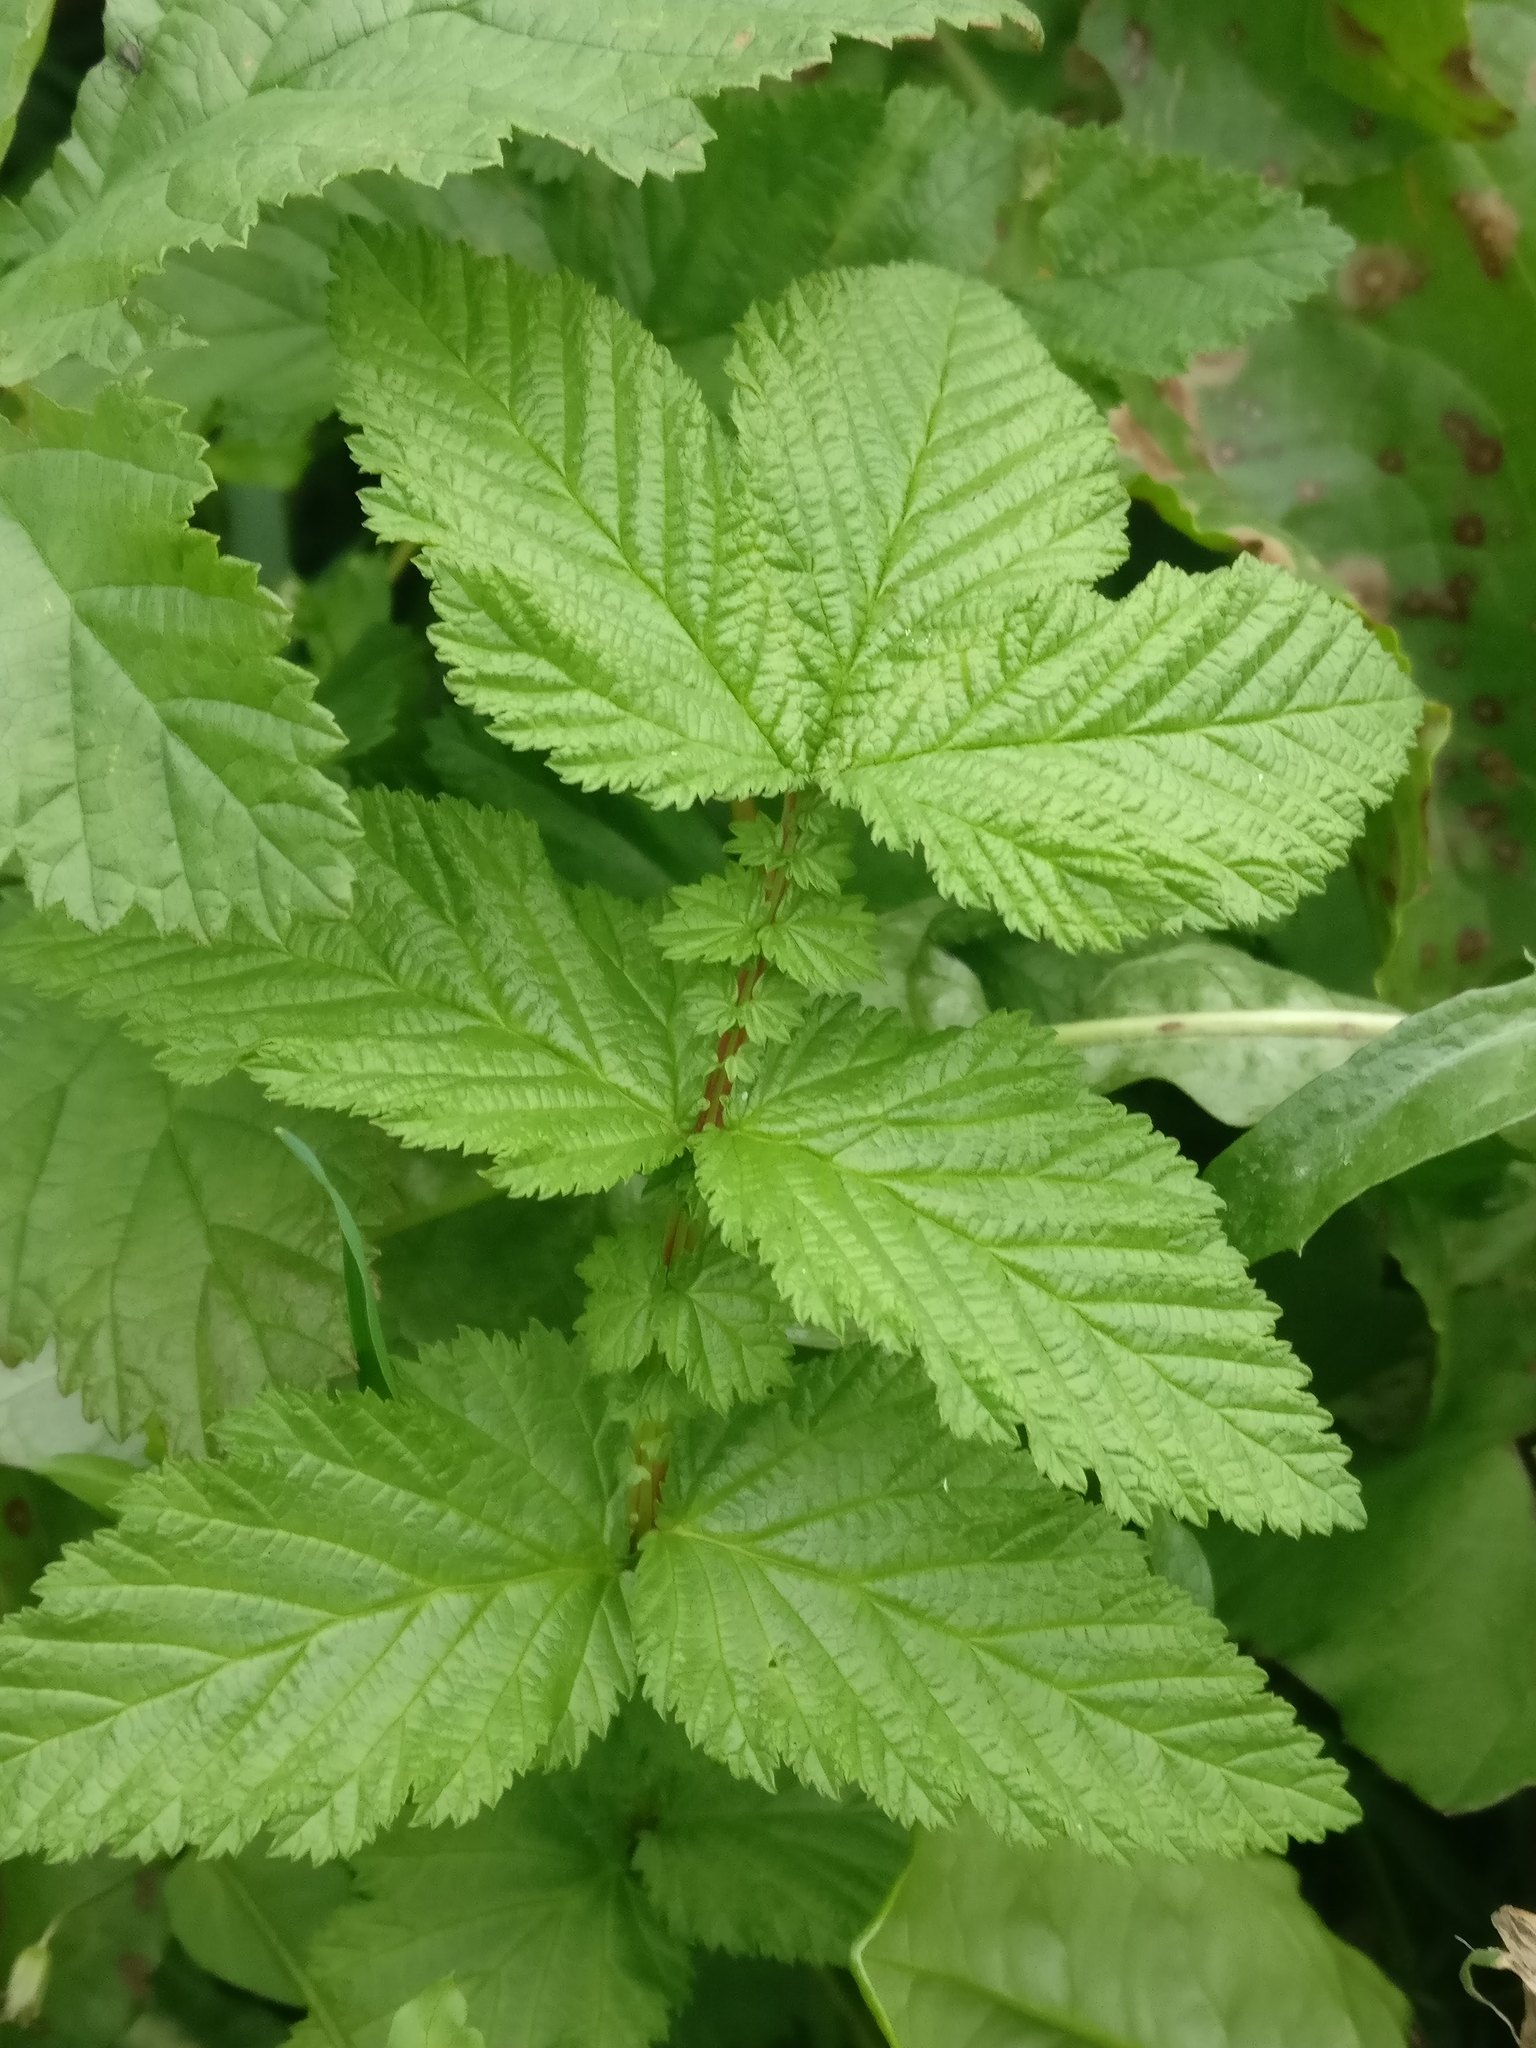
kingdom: Plantae
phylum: Tracheophyta
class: Magnoliopsida
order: Rosales
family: Rosaceae
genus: Filipendula
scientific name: Filipendula ulmaria
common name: Meadowsweet
